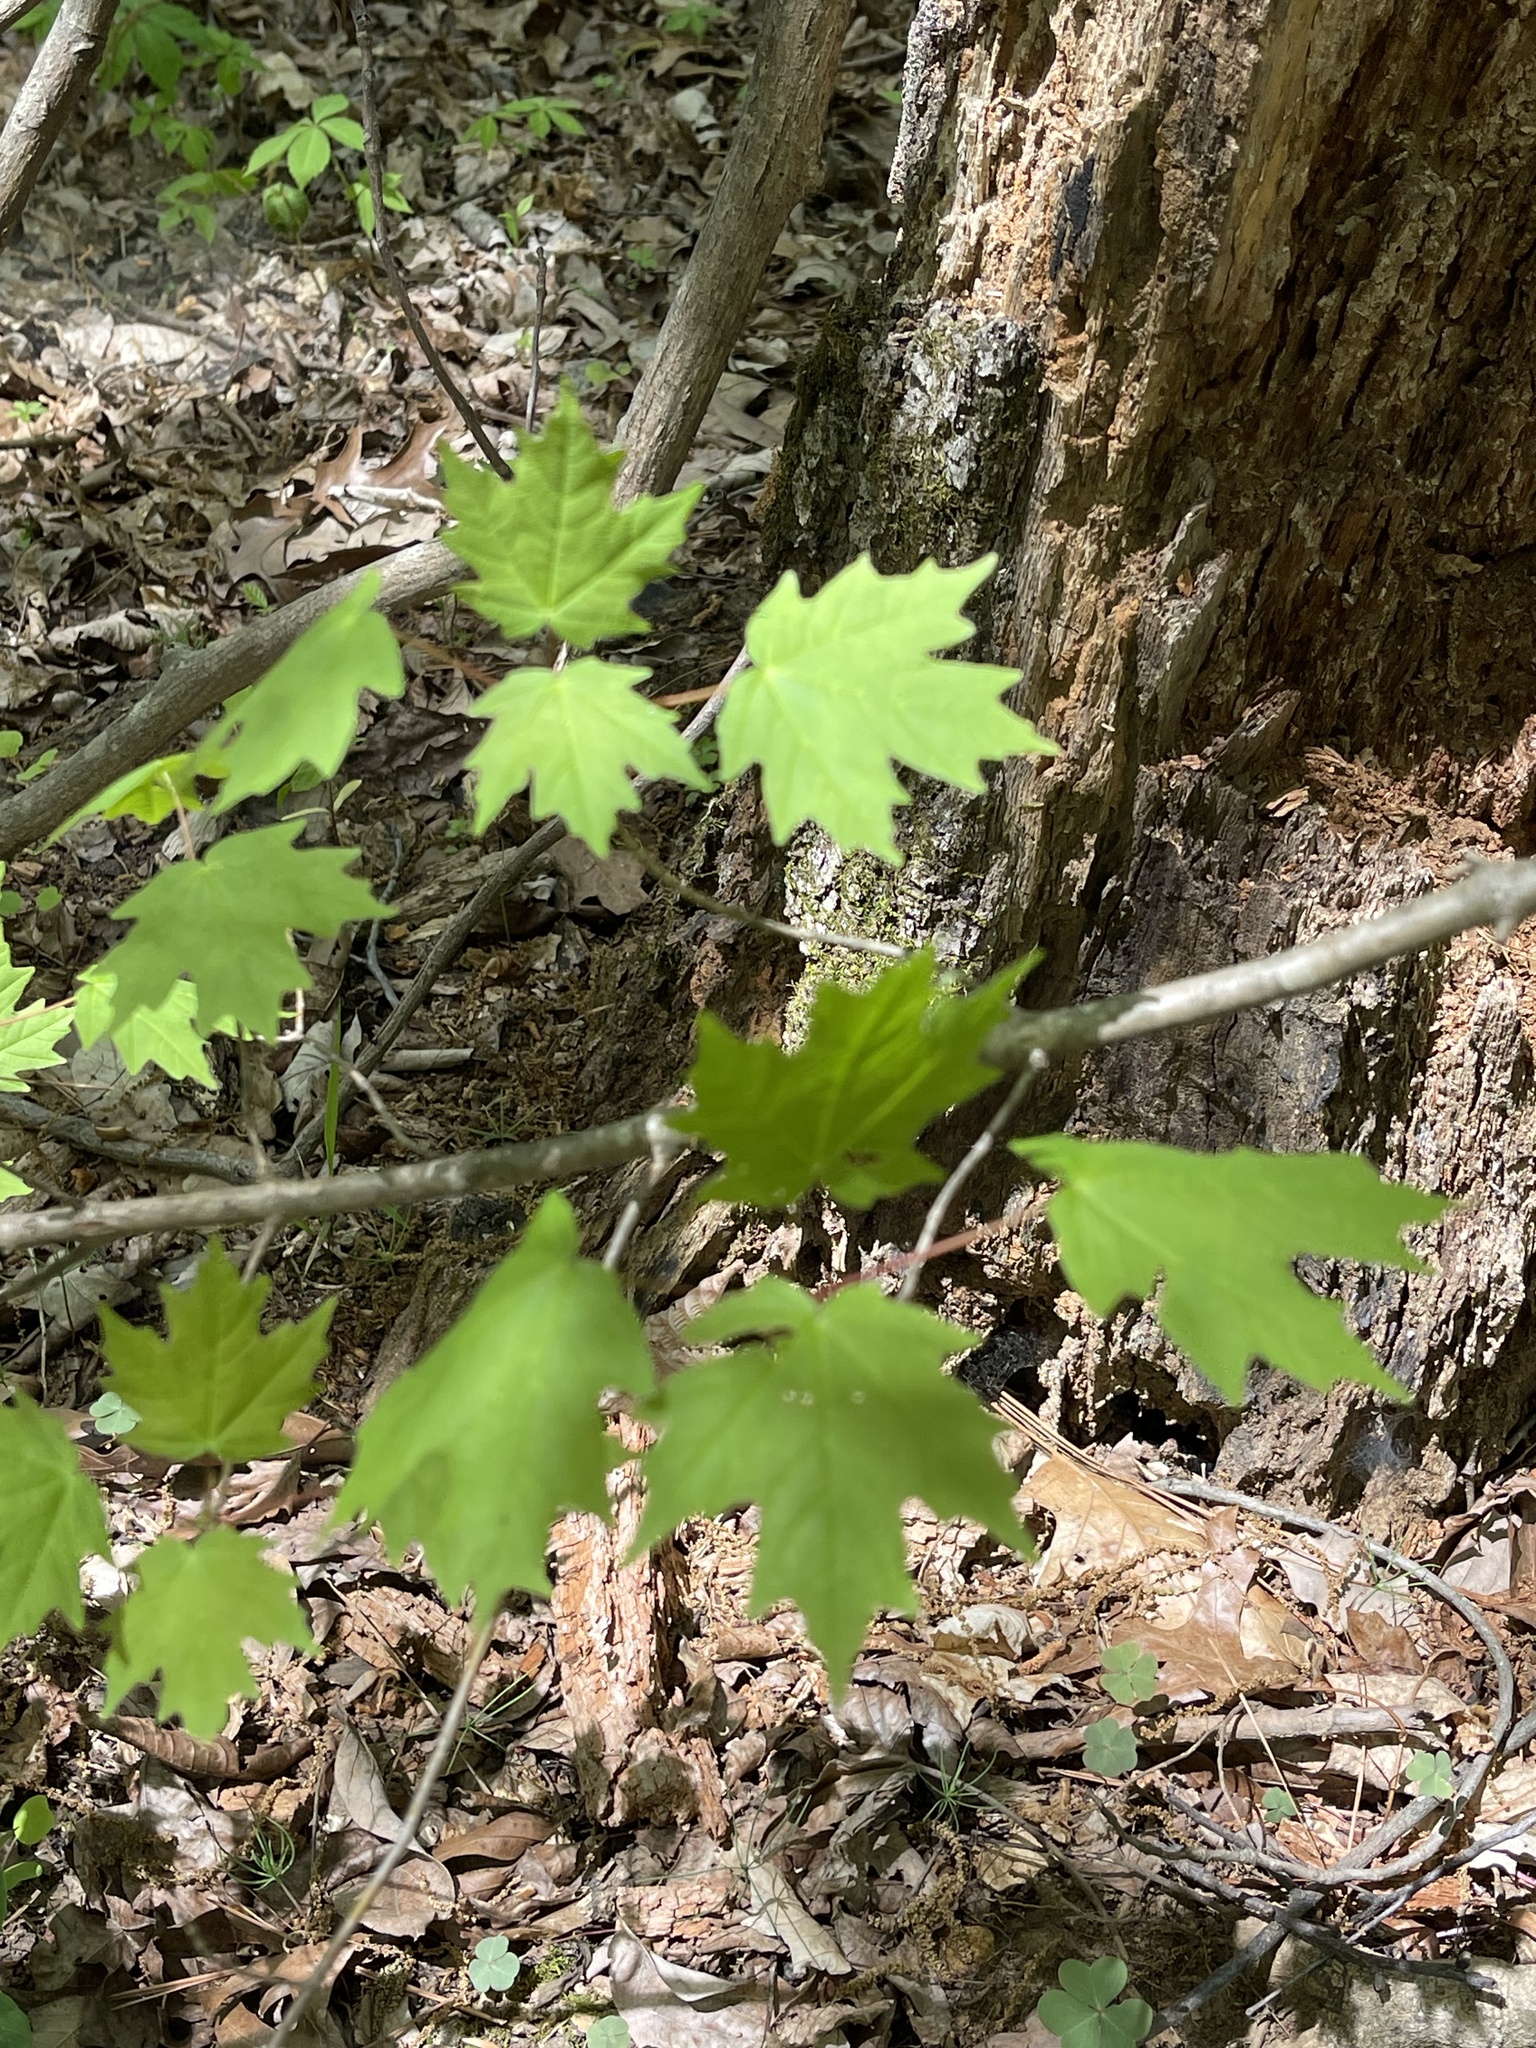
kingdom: Plantae
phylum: Tracheophyta
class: Magnoliopsida
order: Sapindales
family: Sapindaceae
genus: Acer
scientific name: Acer saccharum
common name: Sugar maple
